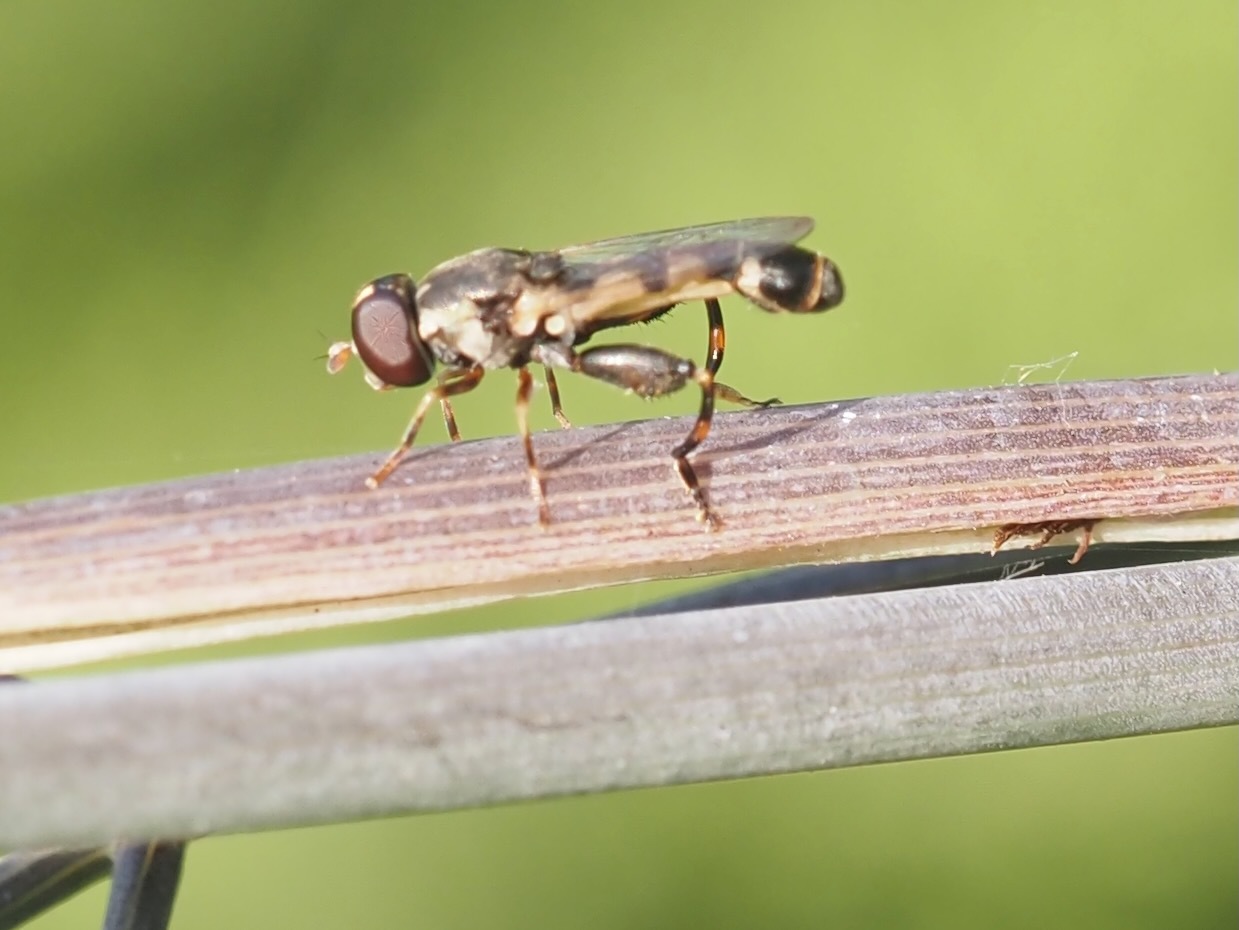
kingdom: Animalia
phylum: Arthropoda
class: Insecta
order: Diptera
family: Syrphidae
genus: Syritta
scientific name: Syritta pipiens
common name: Hover fly
